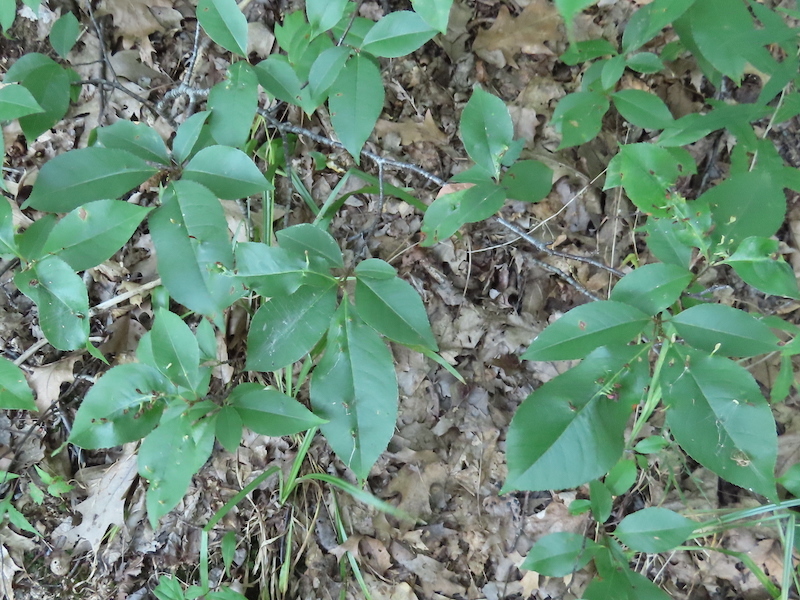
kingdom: Animalia
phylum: Arthropoda
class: Arachnida
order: Trombidiformes
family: Eriophyidae
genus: Eriophyes
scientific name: Eriophyes
